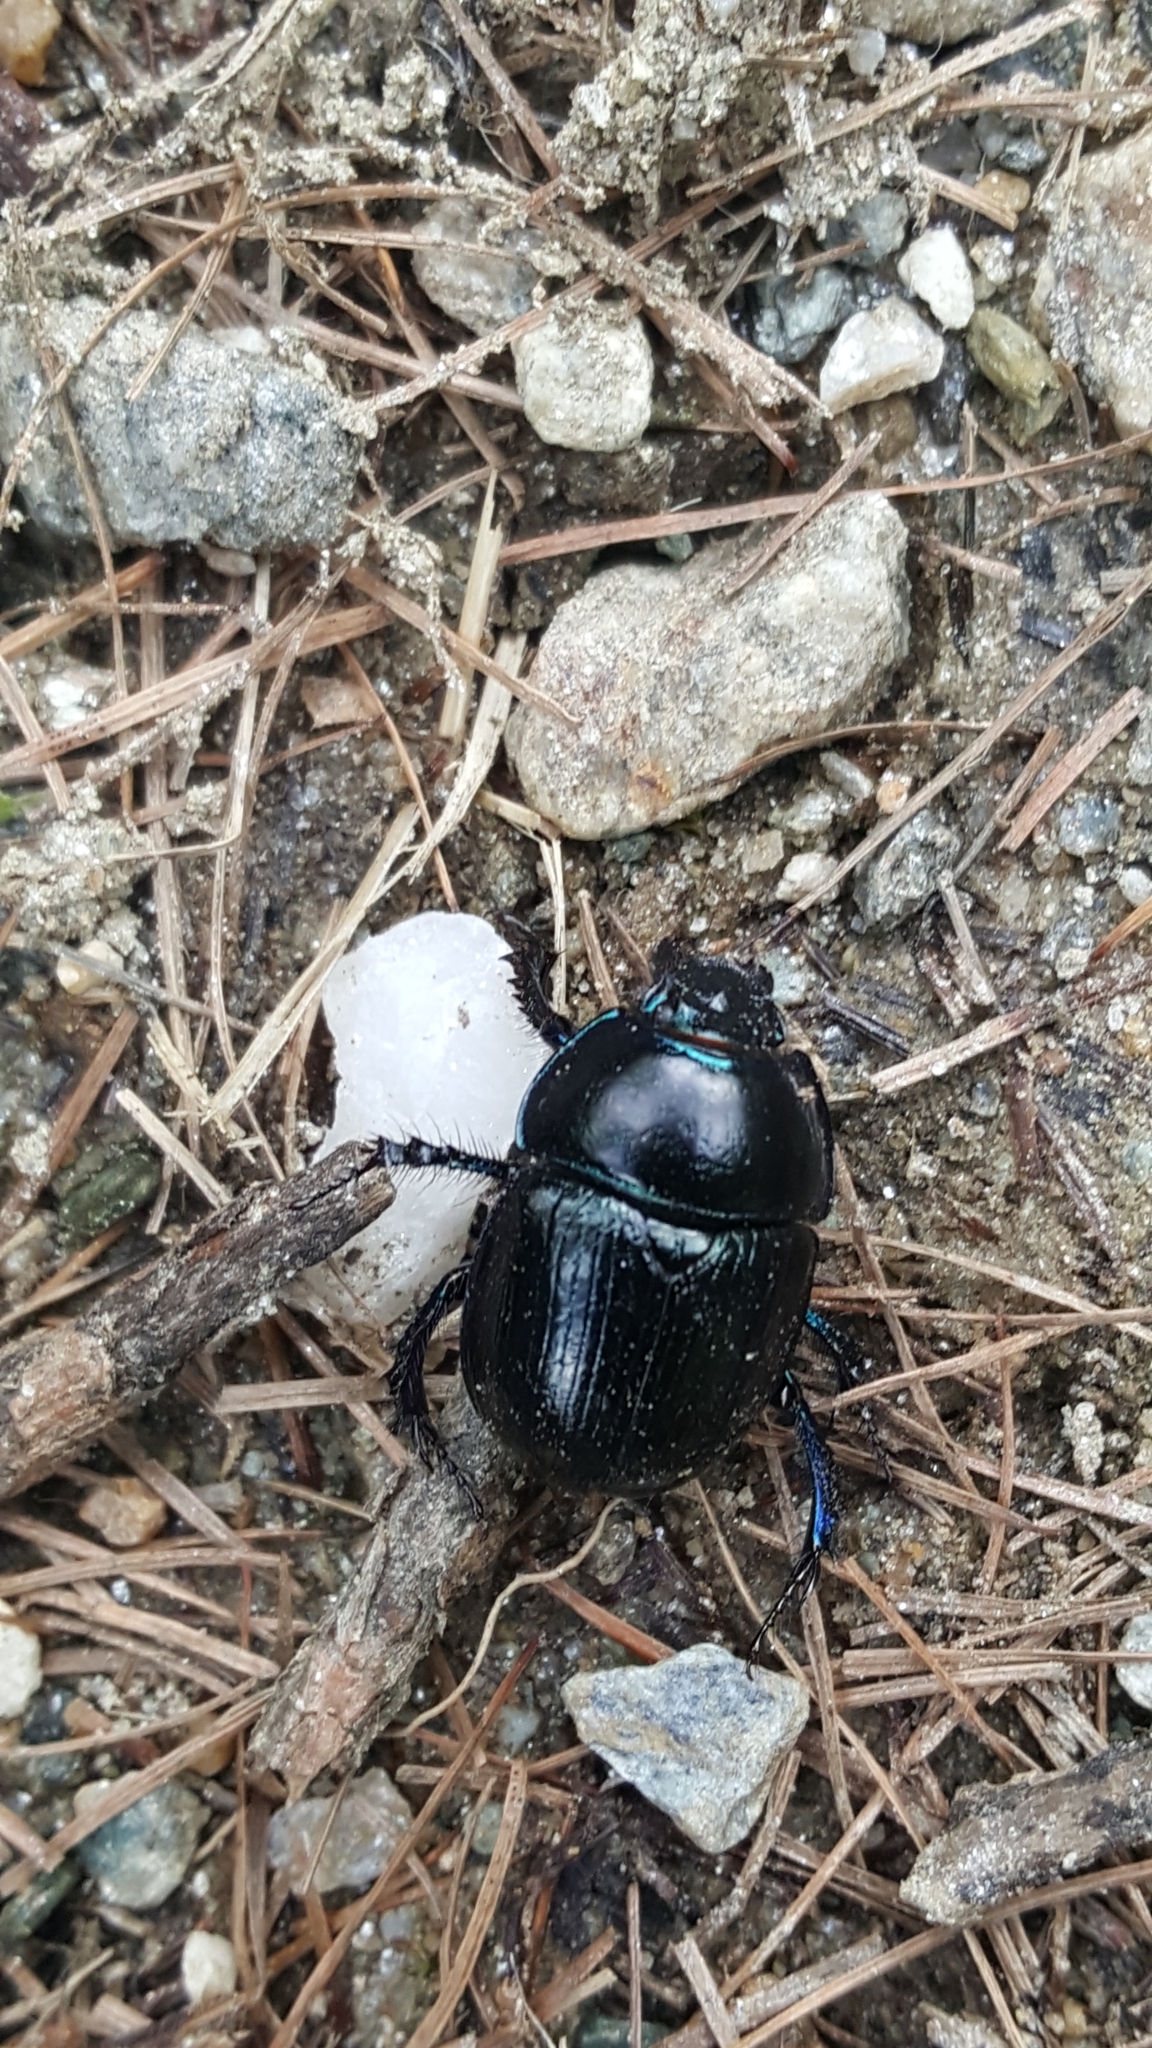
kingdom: Animalia
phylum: Arthropoda
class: Insecta
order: Coleoptera
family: Geotrupidae
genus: Anoplotrupes
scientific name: Anoplotrupes stercorosus
